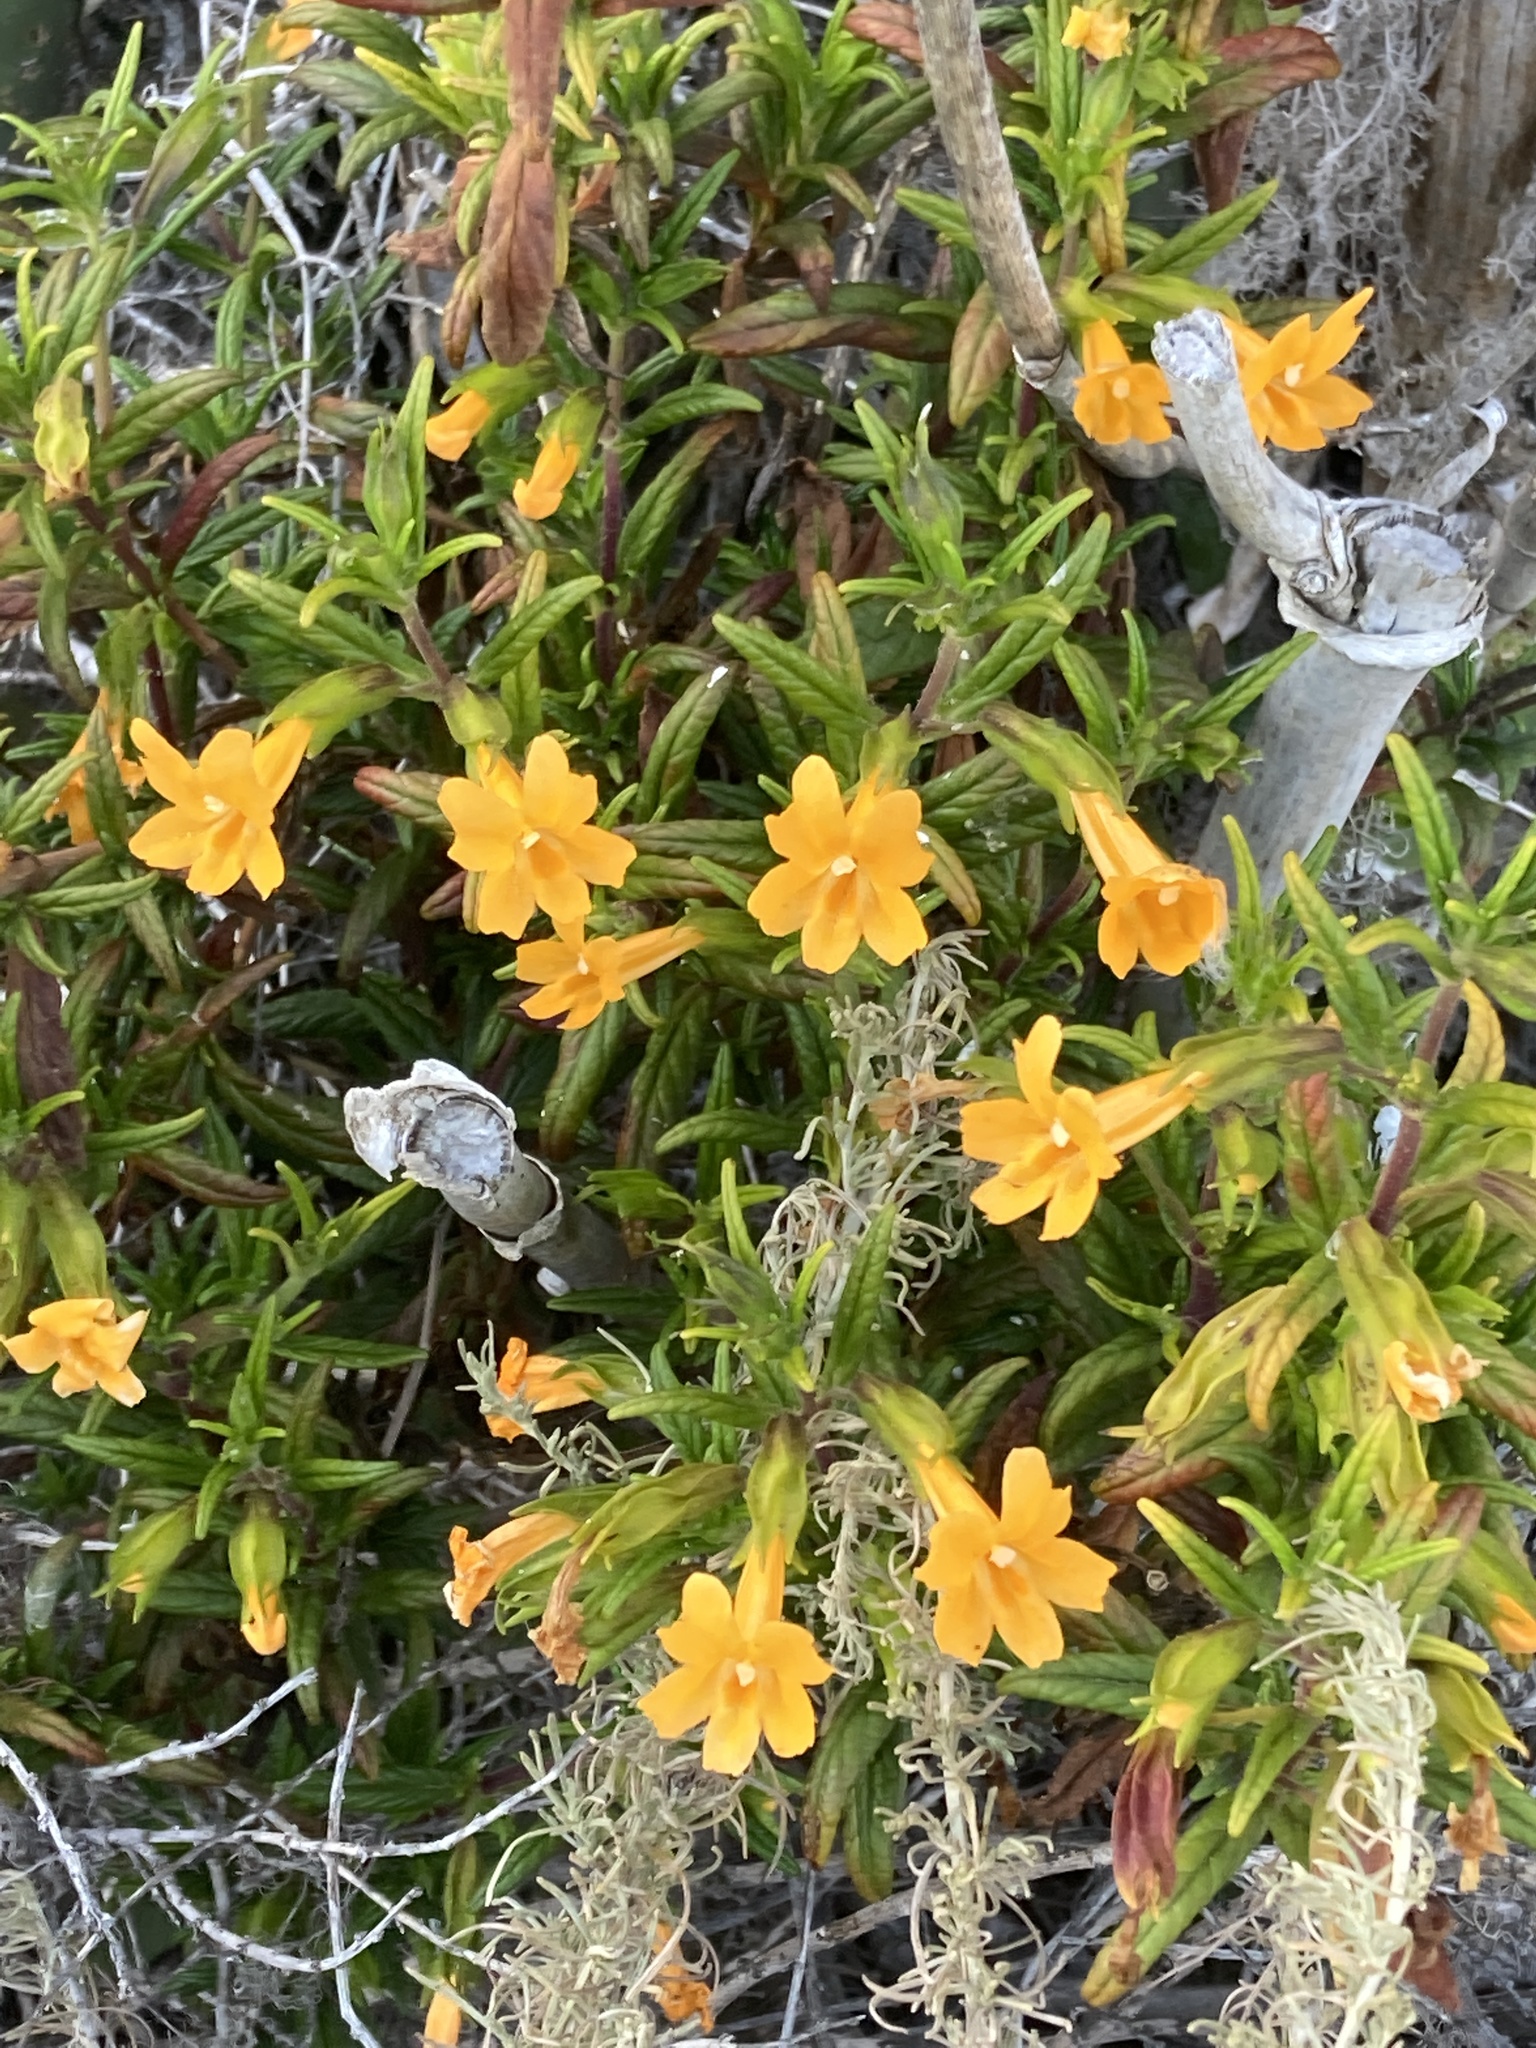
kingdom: Plantae
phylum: Tracheophyta
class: Magnoliopsida
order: Lamiales
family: Phrymaceae
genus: Diplacus
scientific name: Diplacus aurantiacus
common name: Bush monkey-flower
